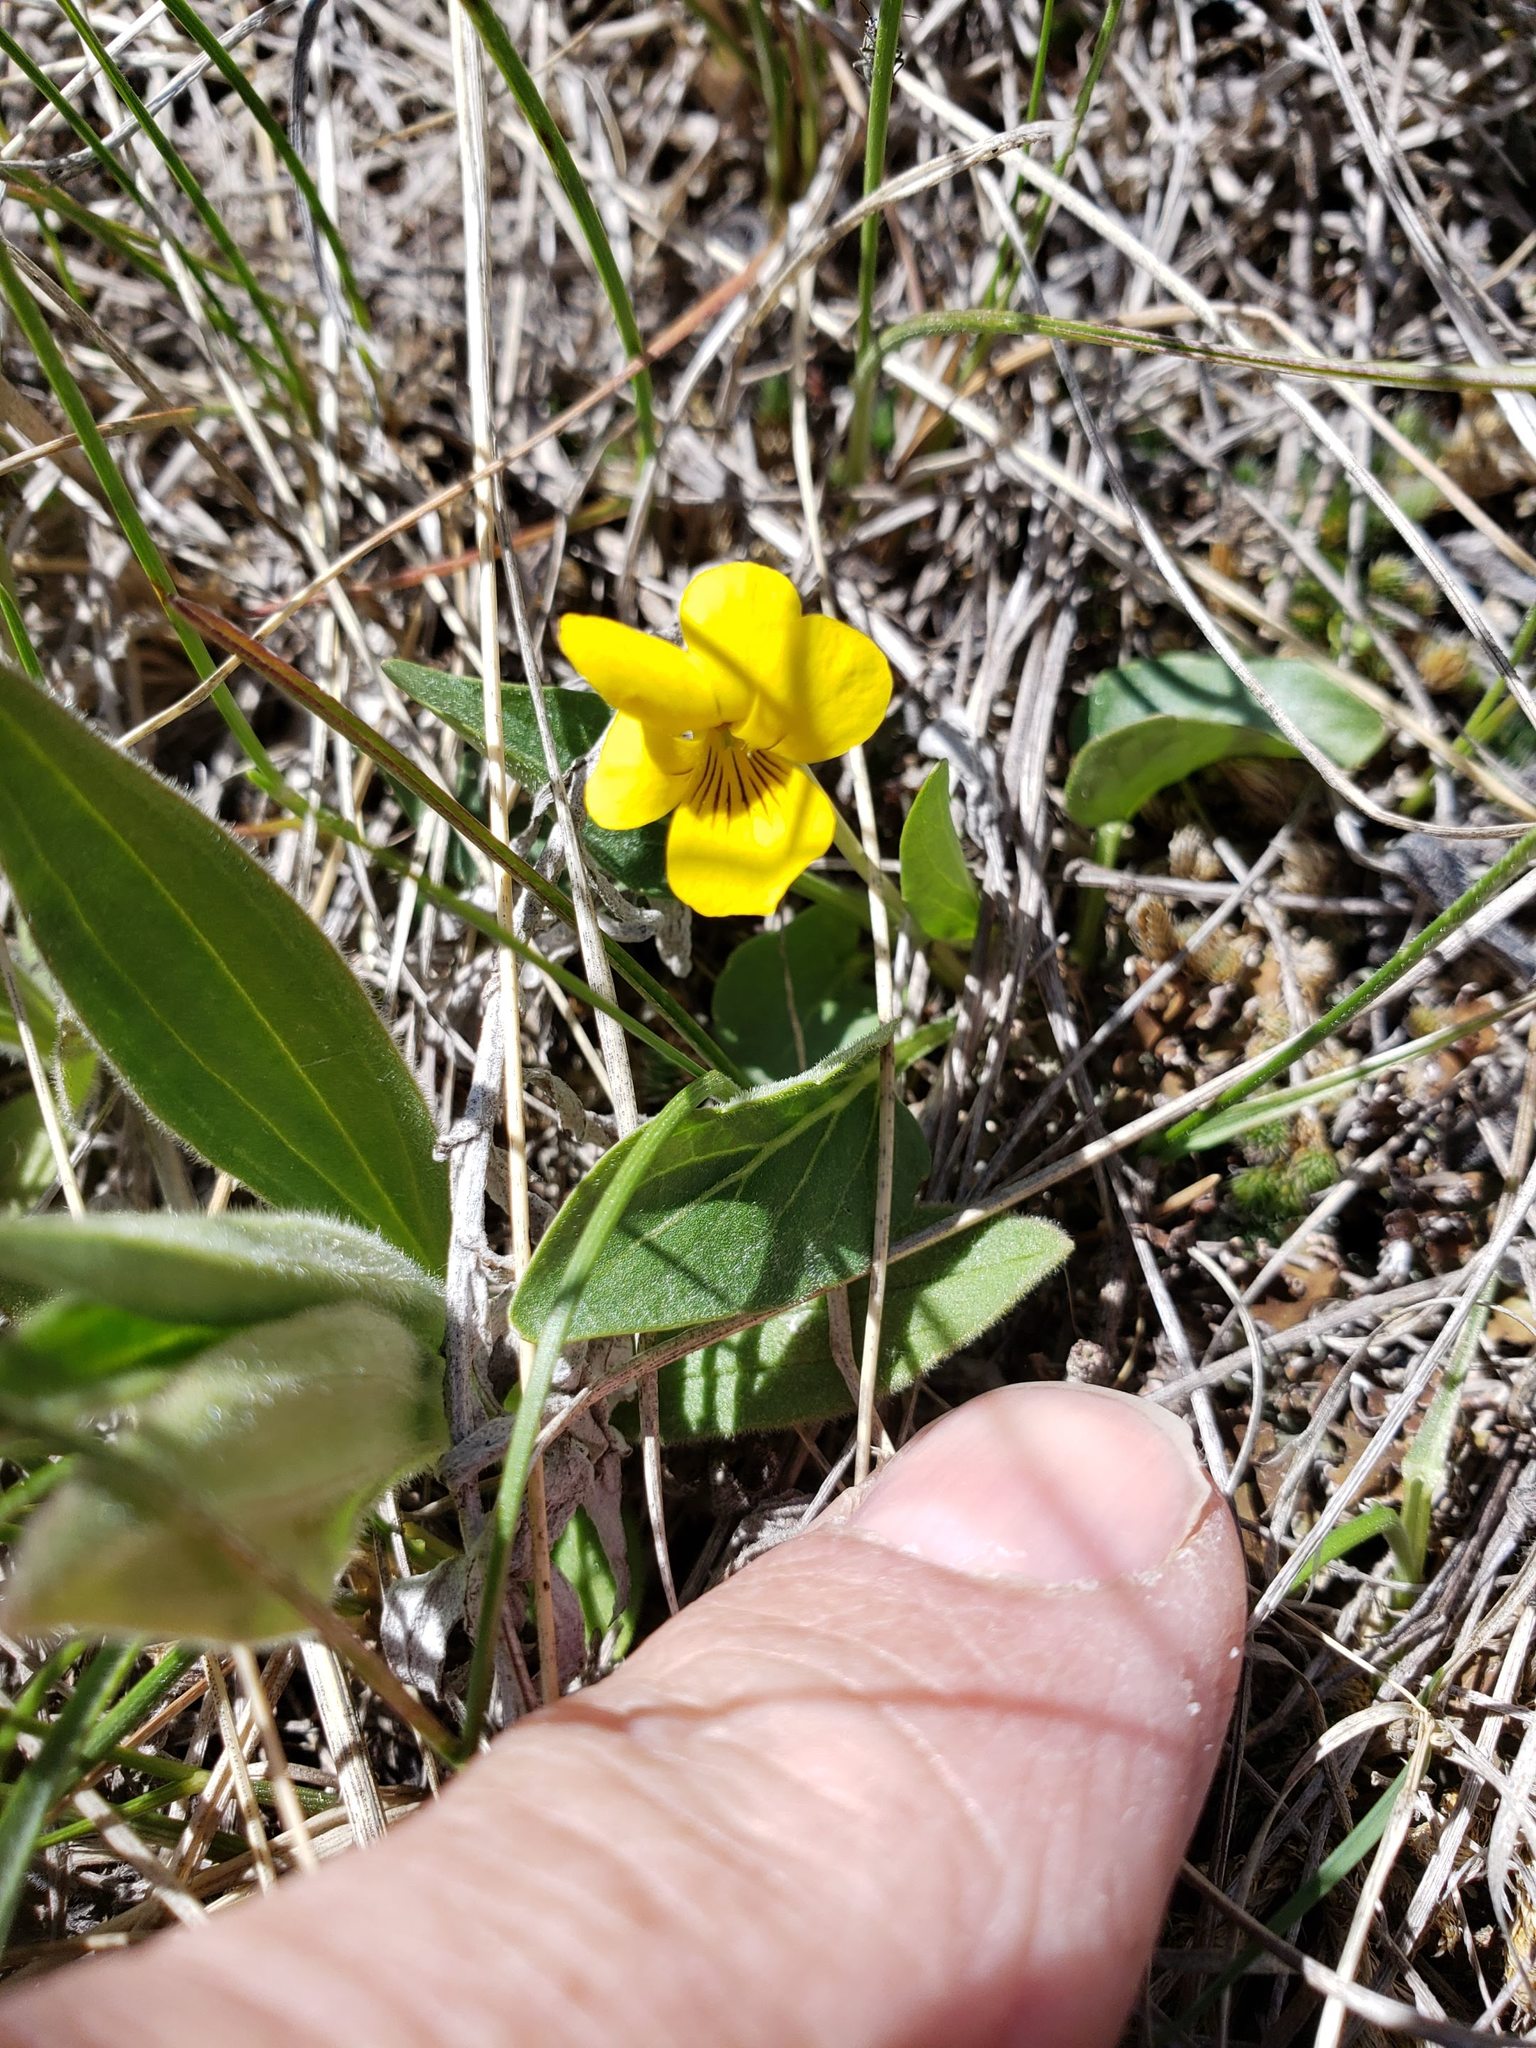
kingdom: Plantae
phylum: Tracheophyta
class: Magnoliopsida
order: Malpighiales
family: Violaceae
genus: Viola
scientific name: Viola nuttallii
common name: Yellow prairie violet
